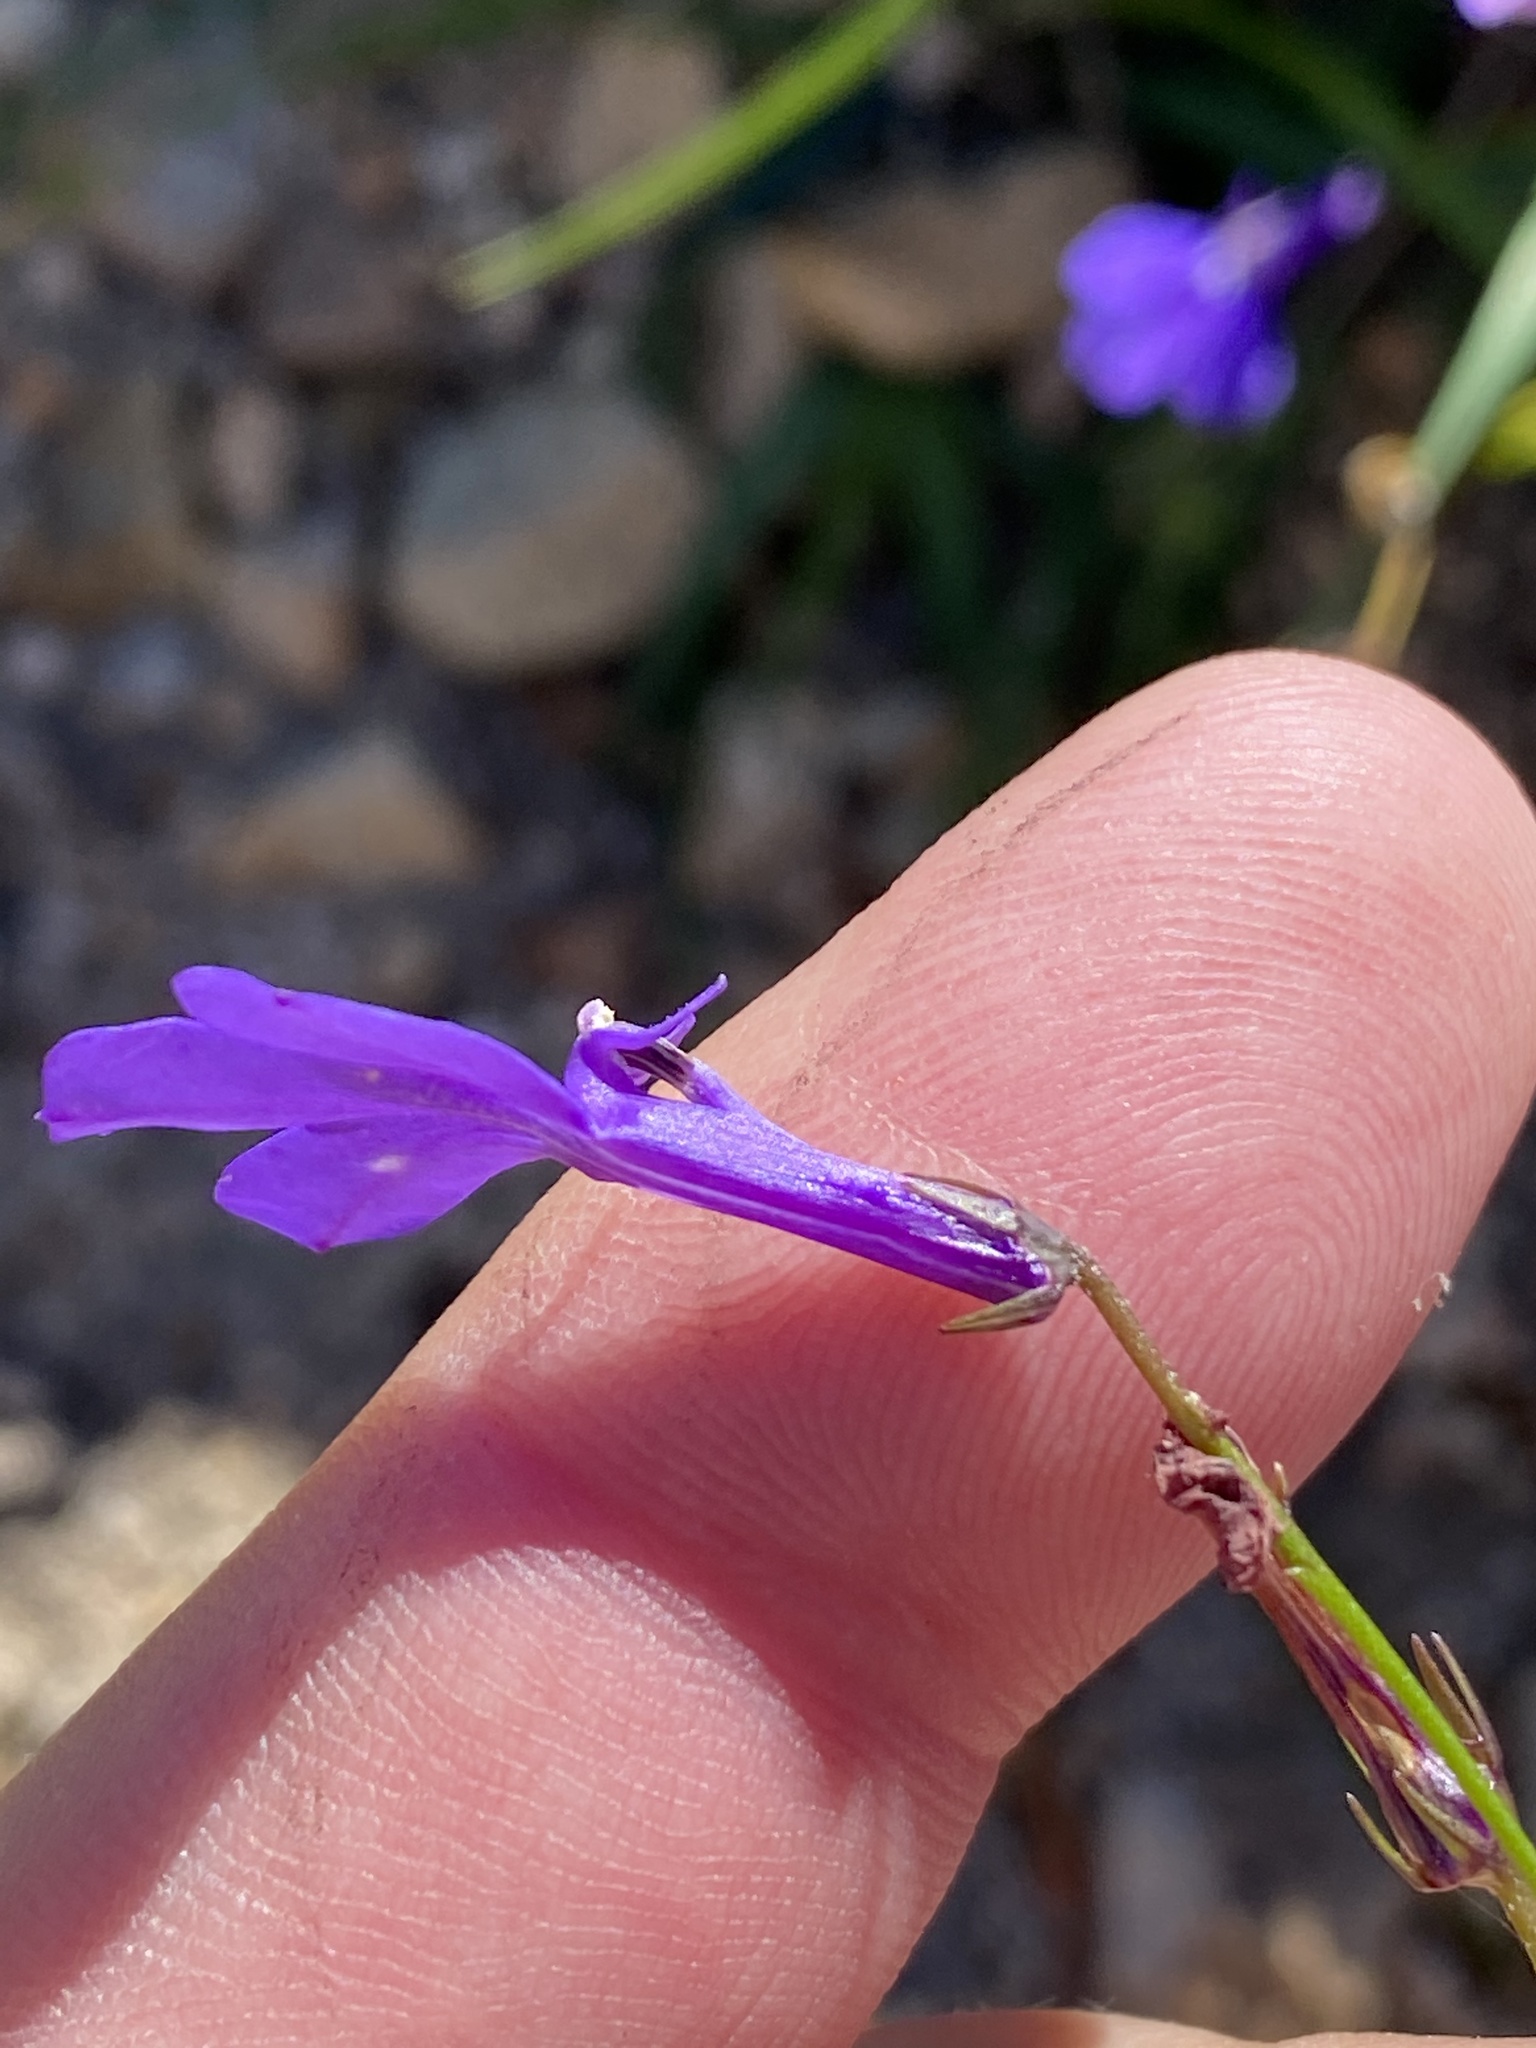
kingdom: Plantae
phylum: Tracheophyta
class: Magnoliopsida
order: Asterales
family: Campanulaceae
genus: Lobelia
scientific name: Lobelia coronopifolia
